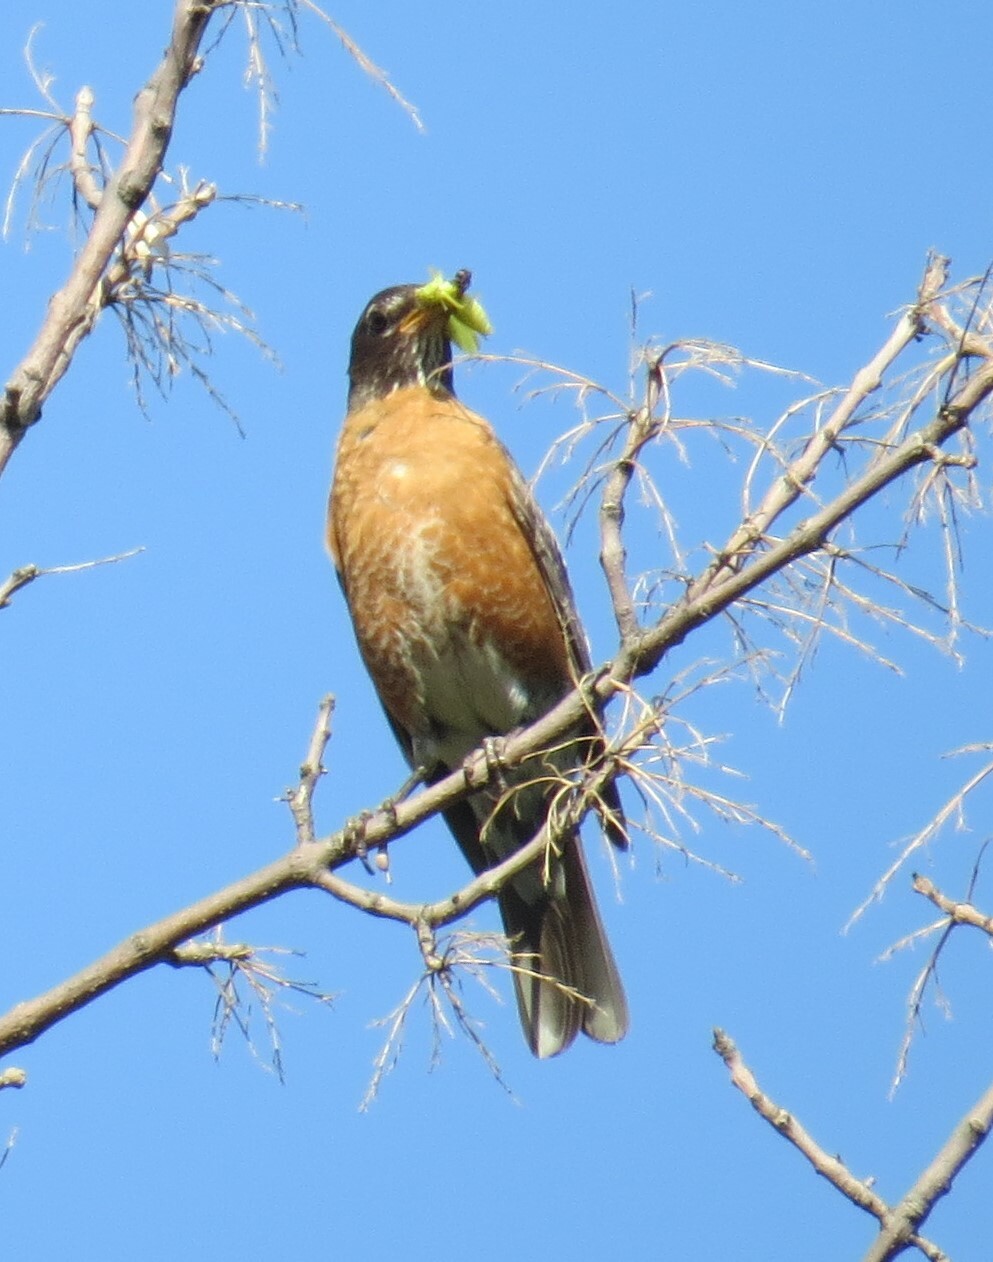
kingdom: Animalia
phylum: Chordata
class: Aves
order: Passeriformes
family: Turdidae
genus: Turdus
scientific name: Turdus migratorius
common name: American robin
